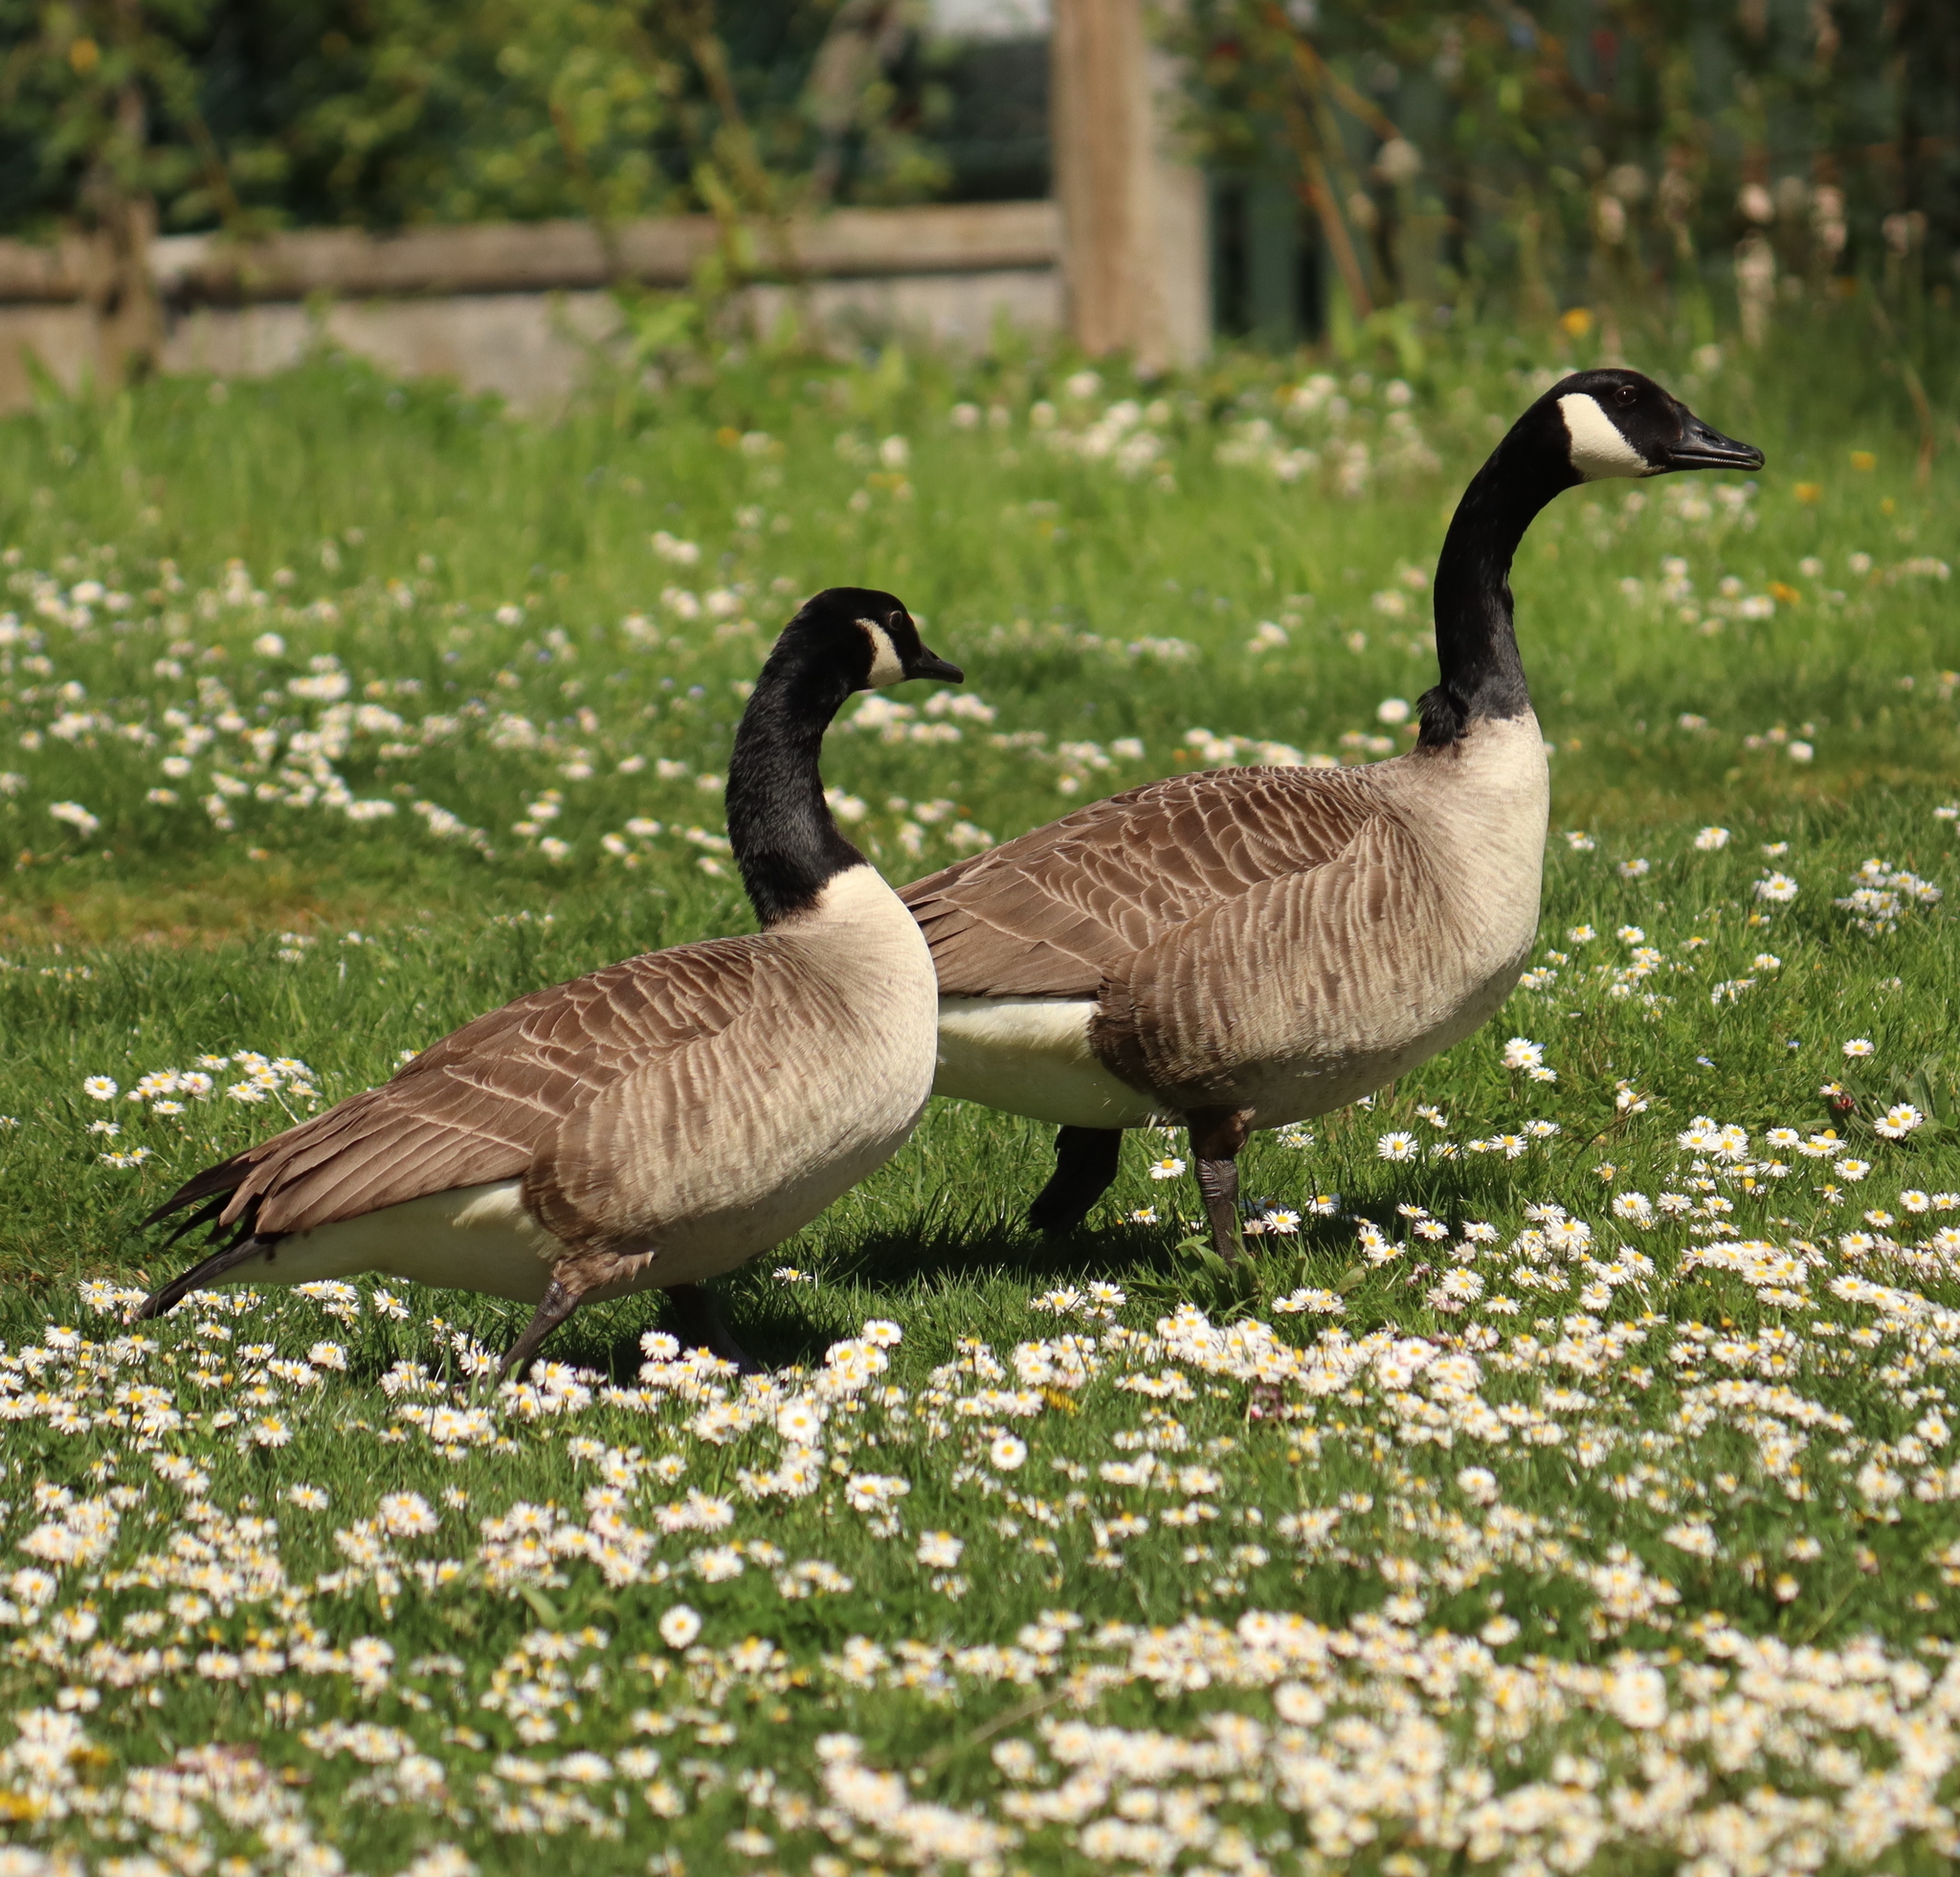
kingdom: Animalia
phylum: Chordata
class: Aves
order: Anseriformes
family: Anatidae
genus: Branta
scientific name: Branta canadensis
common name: Canada goose
